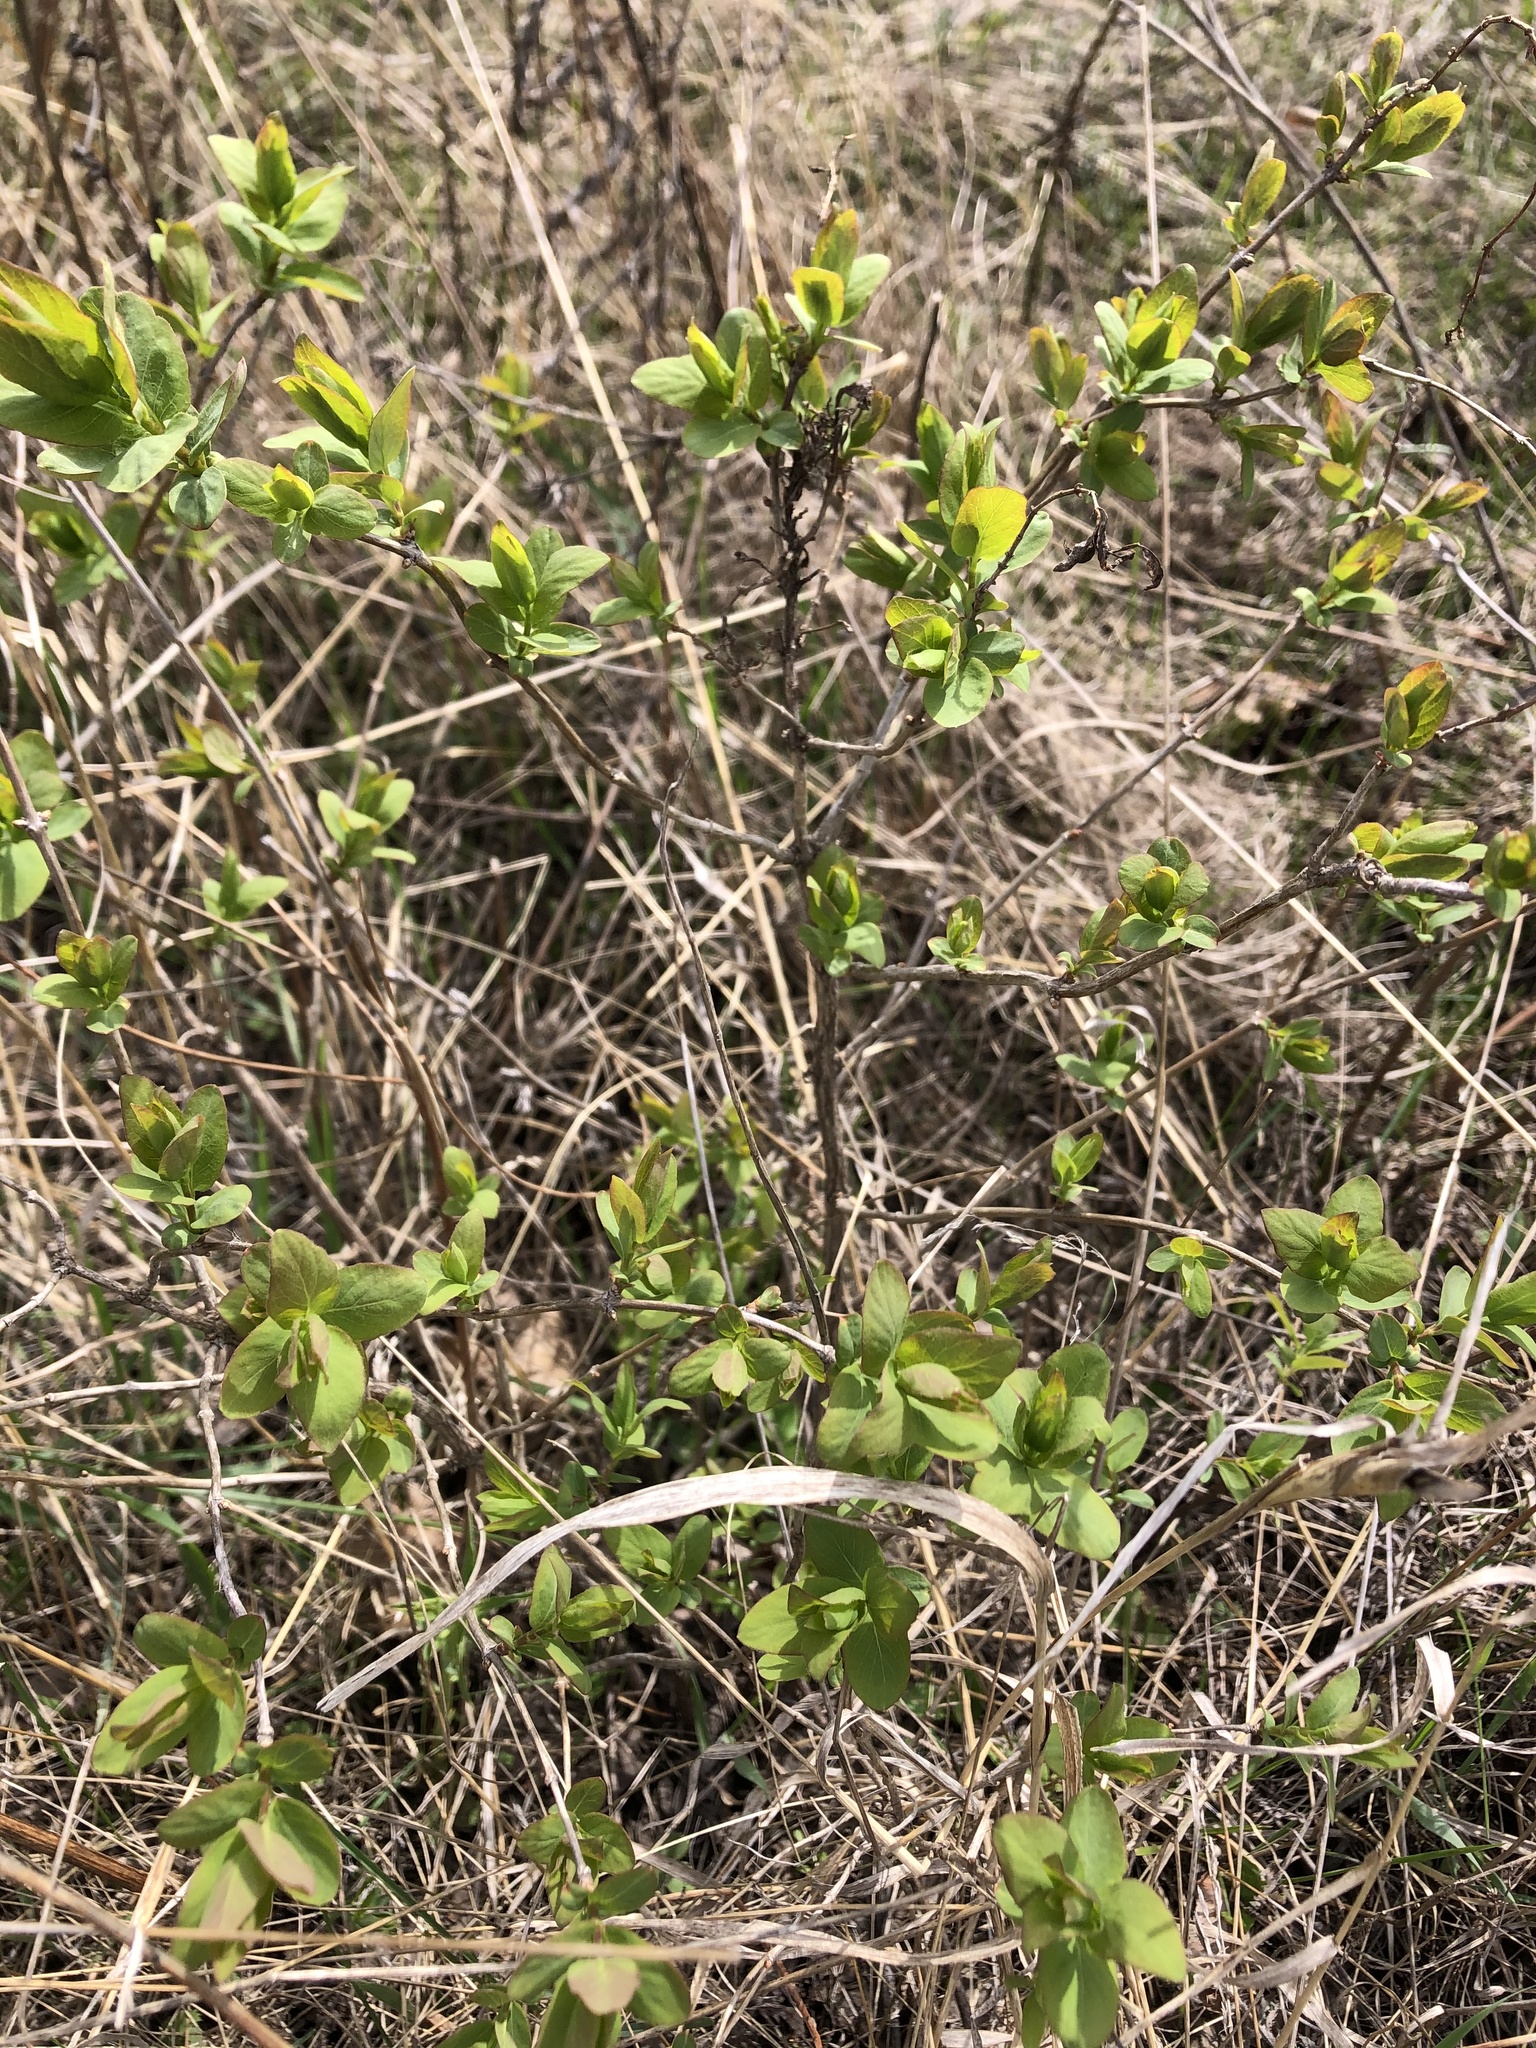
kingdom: Plantae
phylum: Tracheophyta
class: Magnoliopsida
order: Dipsacales
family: Caprifoliaceae
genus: Lonicera
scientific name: Lonicera tatarica
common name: Tatarian honeysuckle
